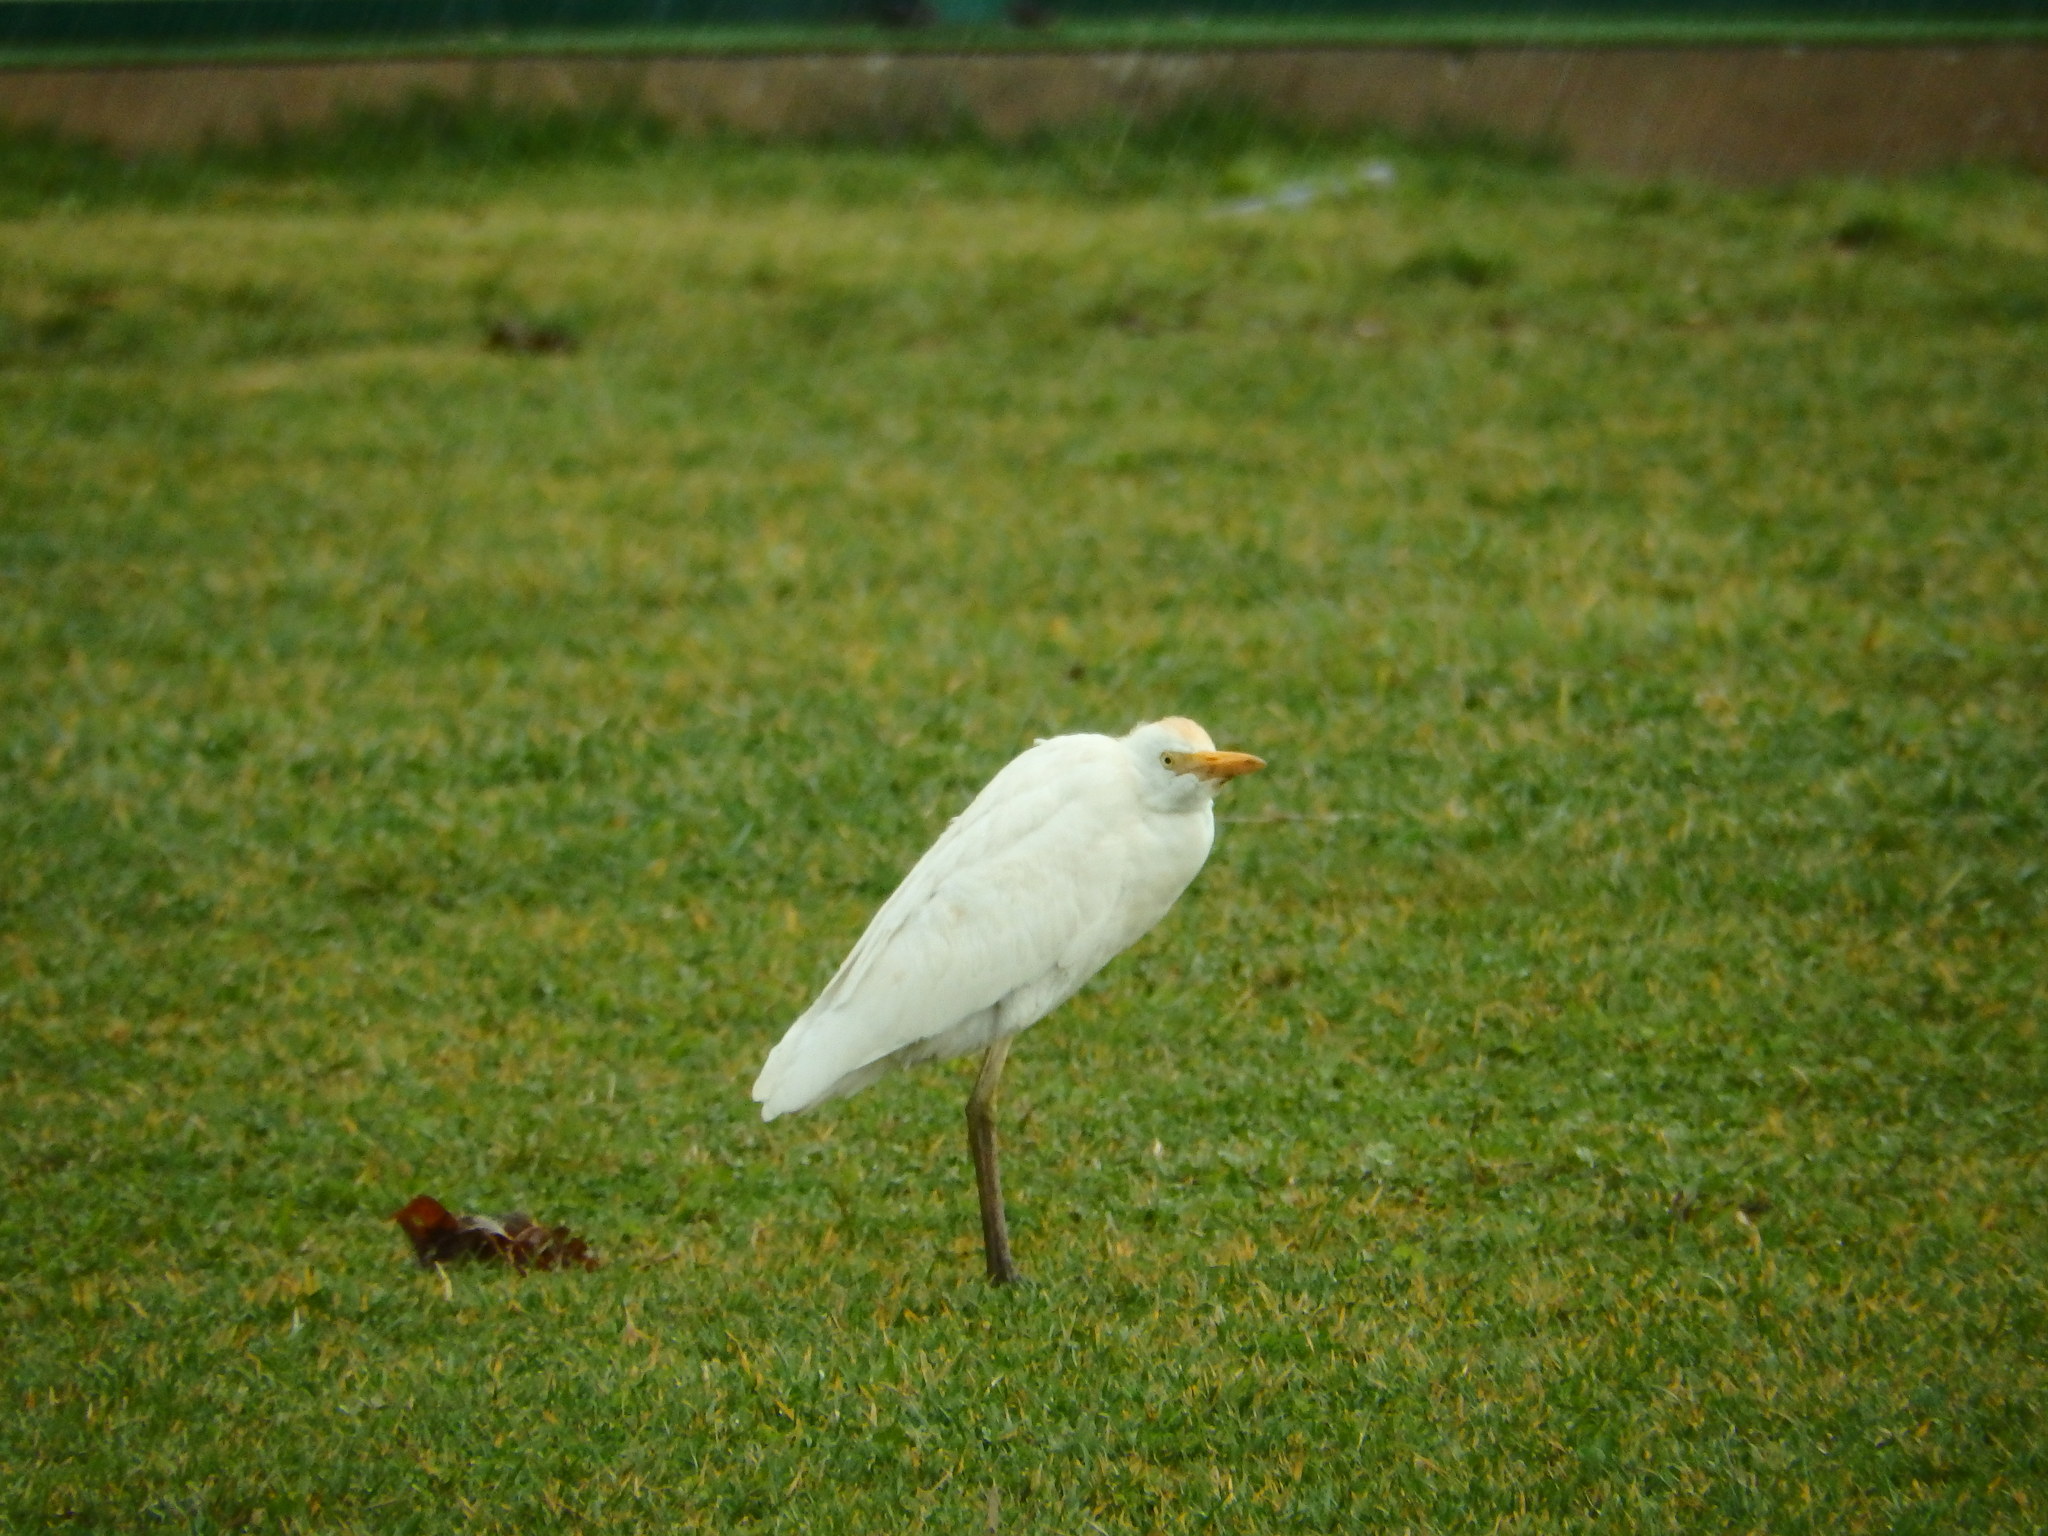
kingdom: Animalia
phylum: Chordata
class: Aves
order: Pelecaniformes
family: Ardeidae
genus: Bubulcus
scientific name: Bubulcus ibis
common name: Cattle egret
